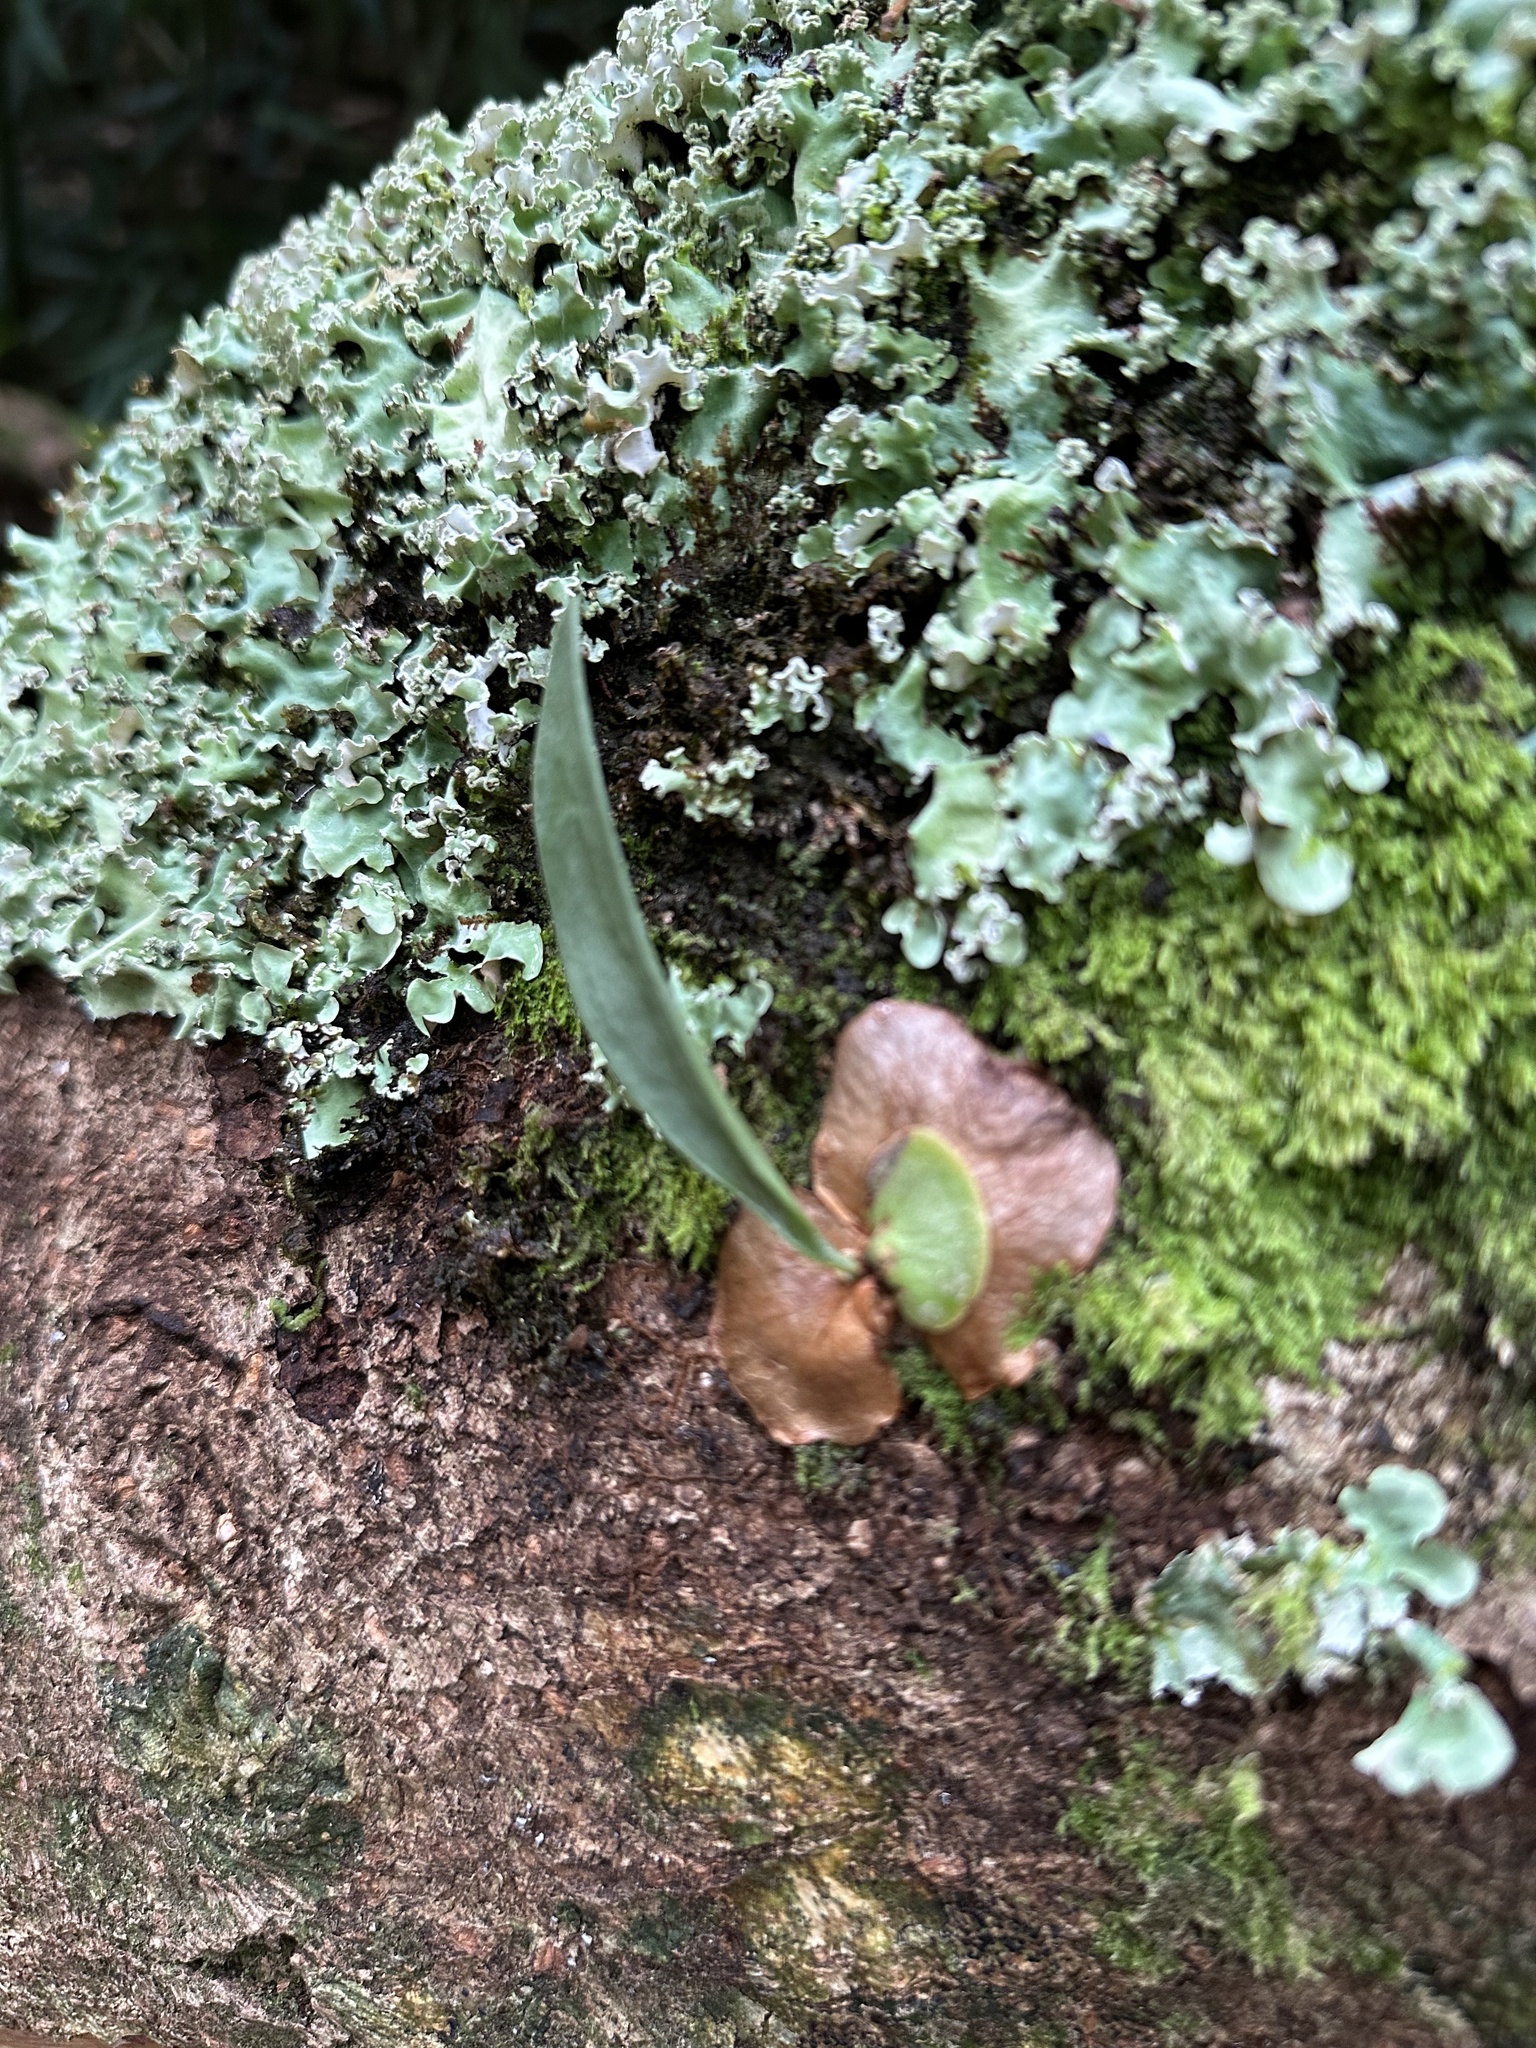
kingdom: Plantae
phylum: Tracheophyta
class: Polypodiopsida
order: Polypodiales
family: Polypodiaceae
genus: Platycerium
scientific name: Platycerium bifurcatum
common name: Elkhorn fern
